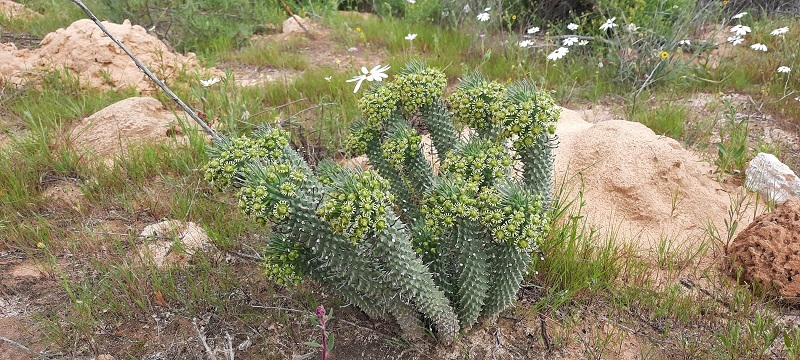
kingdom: Plantae
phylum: Tracheophyta
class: Magnoliopsida
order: Malpighiales
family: Euphorbiaceae
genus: Euphorbia
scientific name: Euphorbia caput-medusae
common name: Medusa's-head
